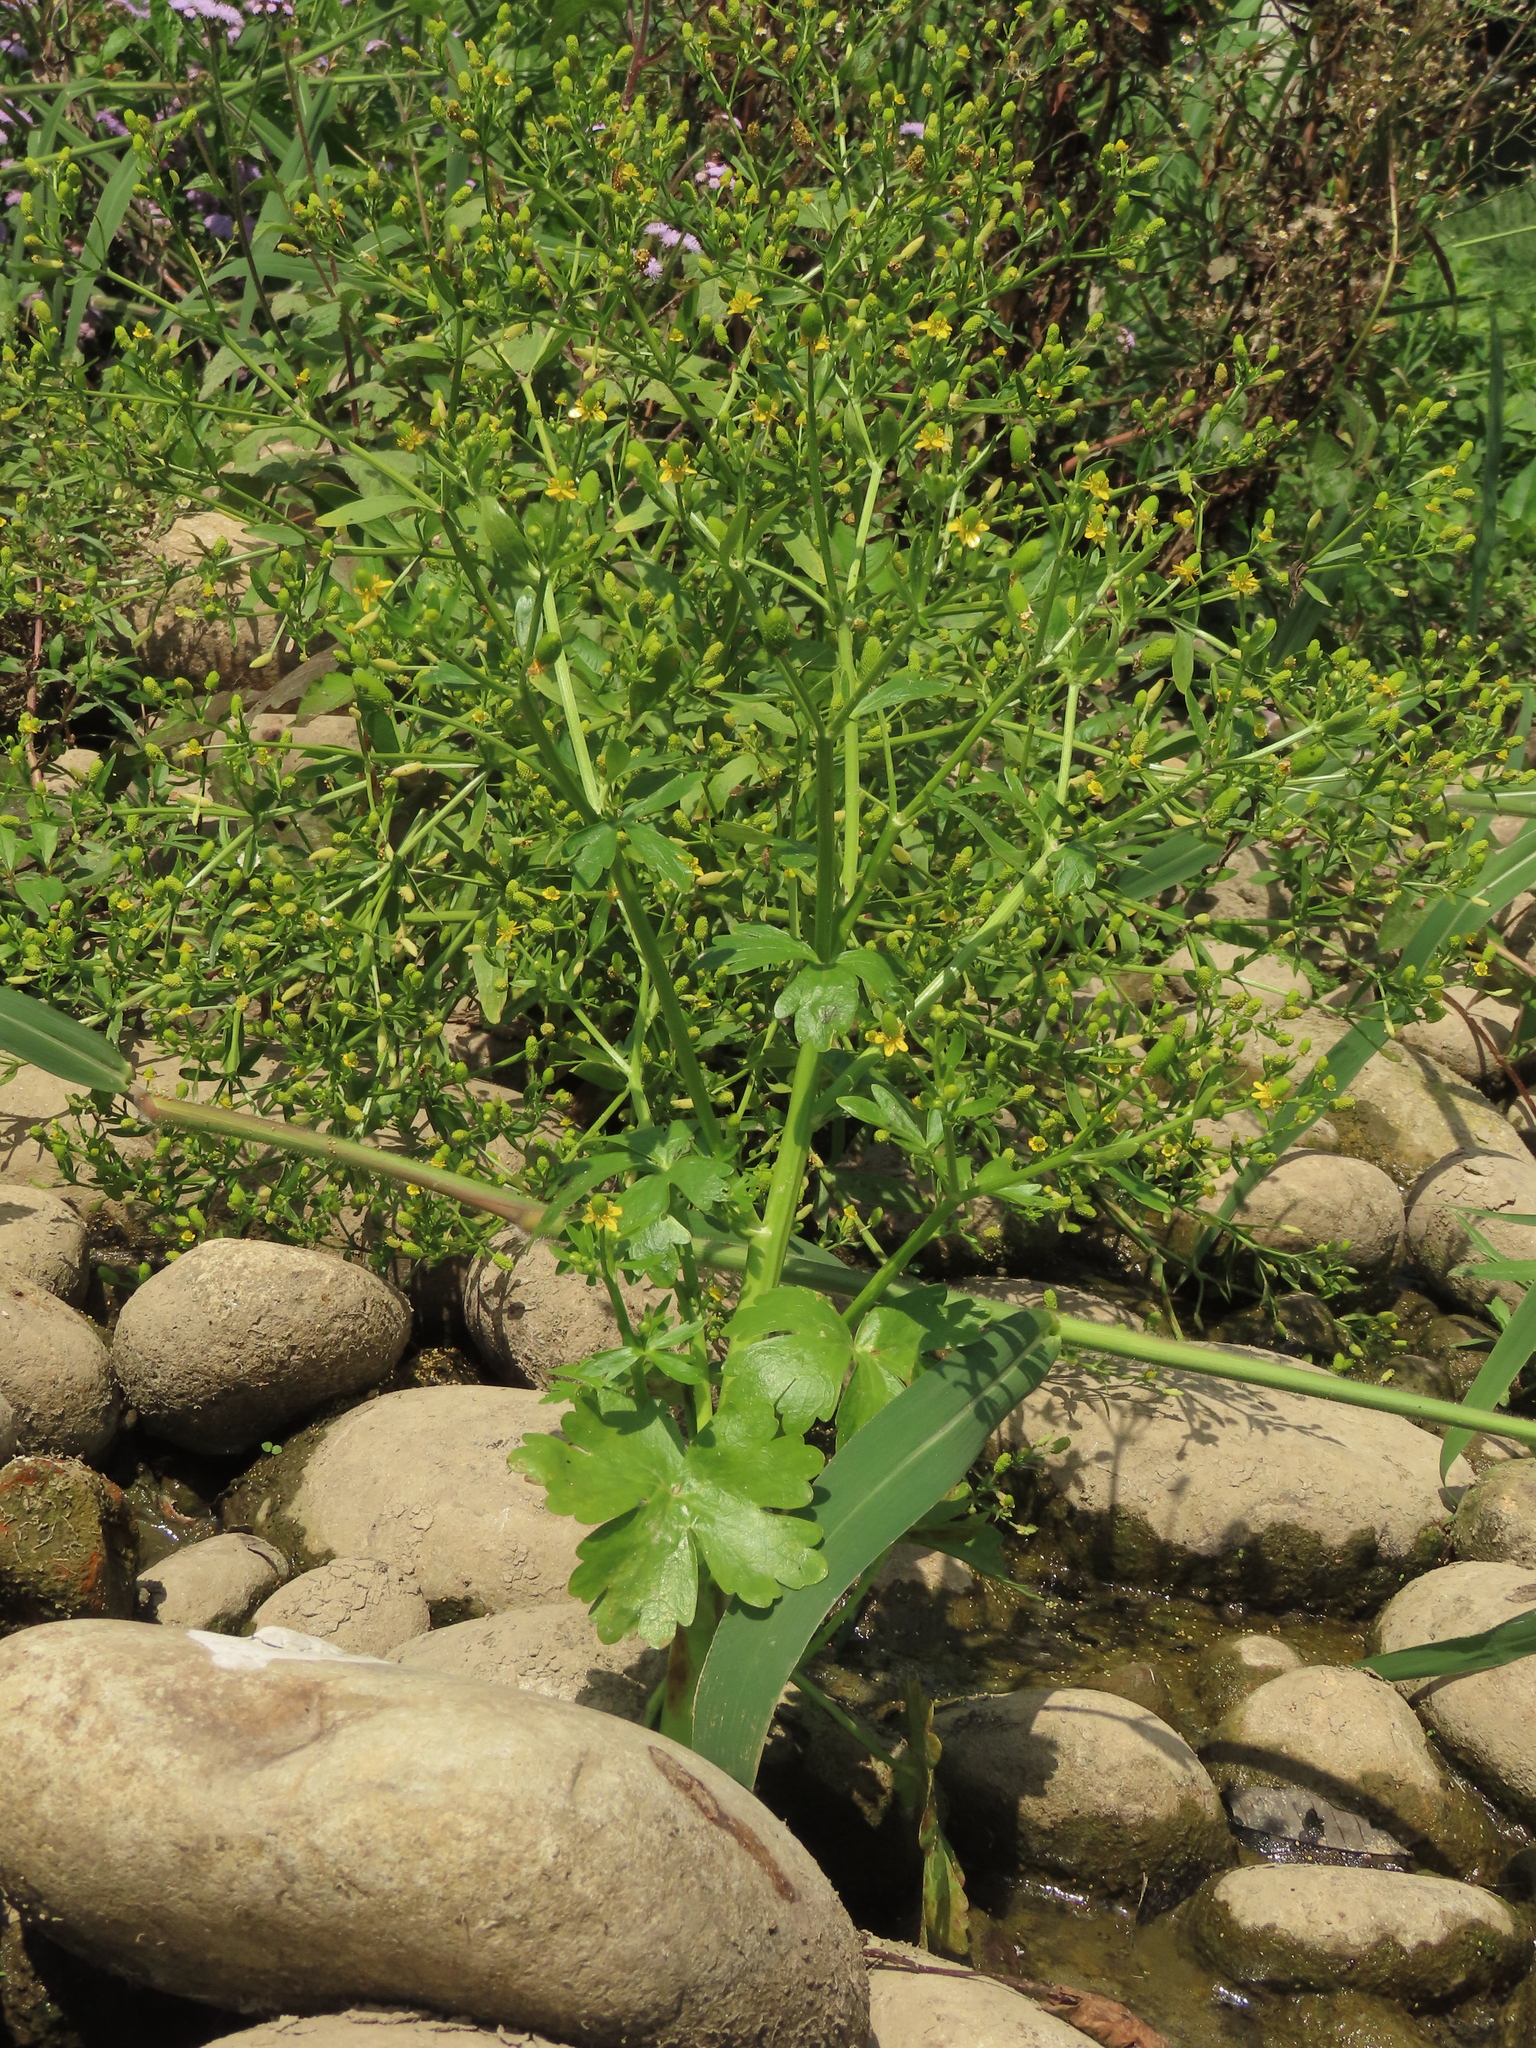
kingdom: Plantae
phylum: Tracheophyta
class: Magnoliopsida
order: Ranunculales
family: Ranunculaceae
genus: Ranunculus
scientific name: Ranunculus sceleratus
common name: Celery-leaved buttercup
